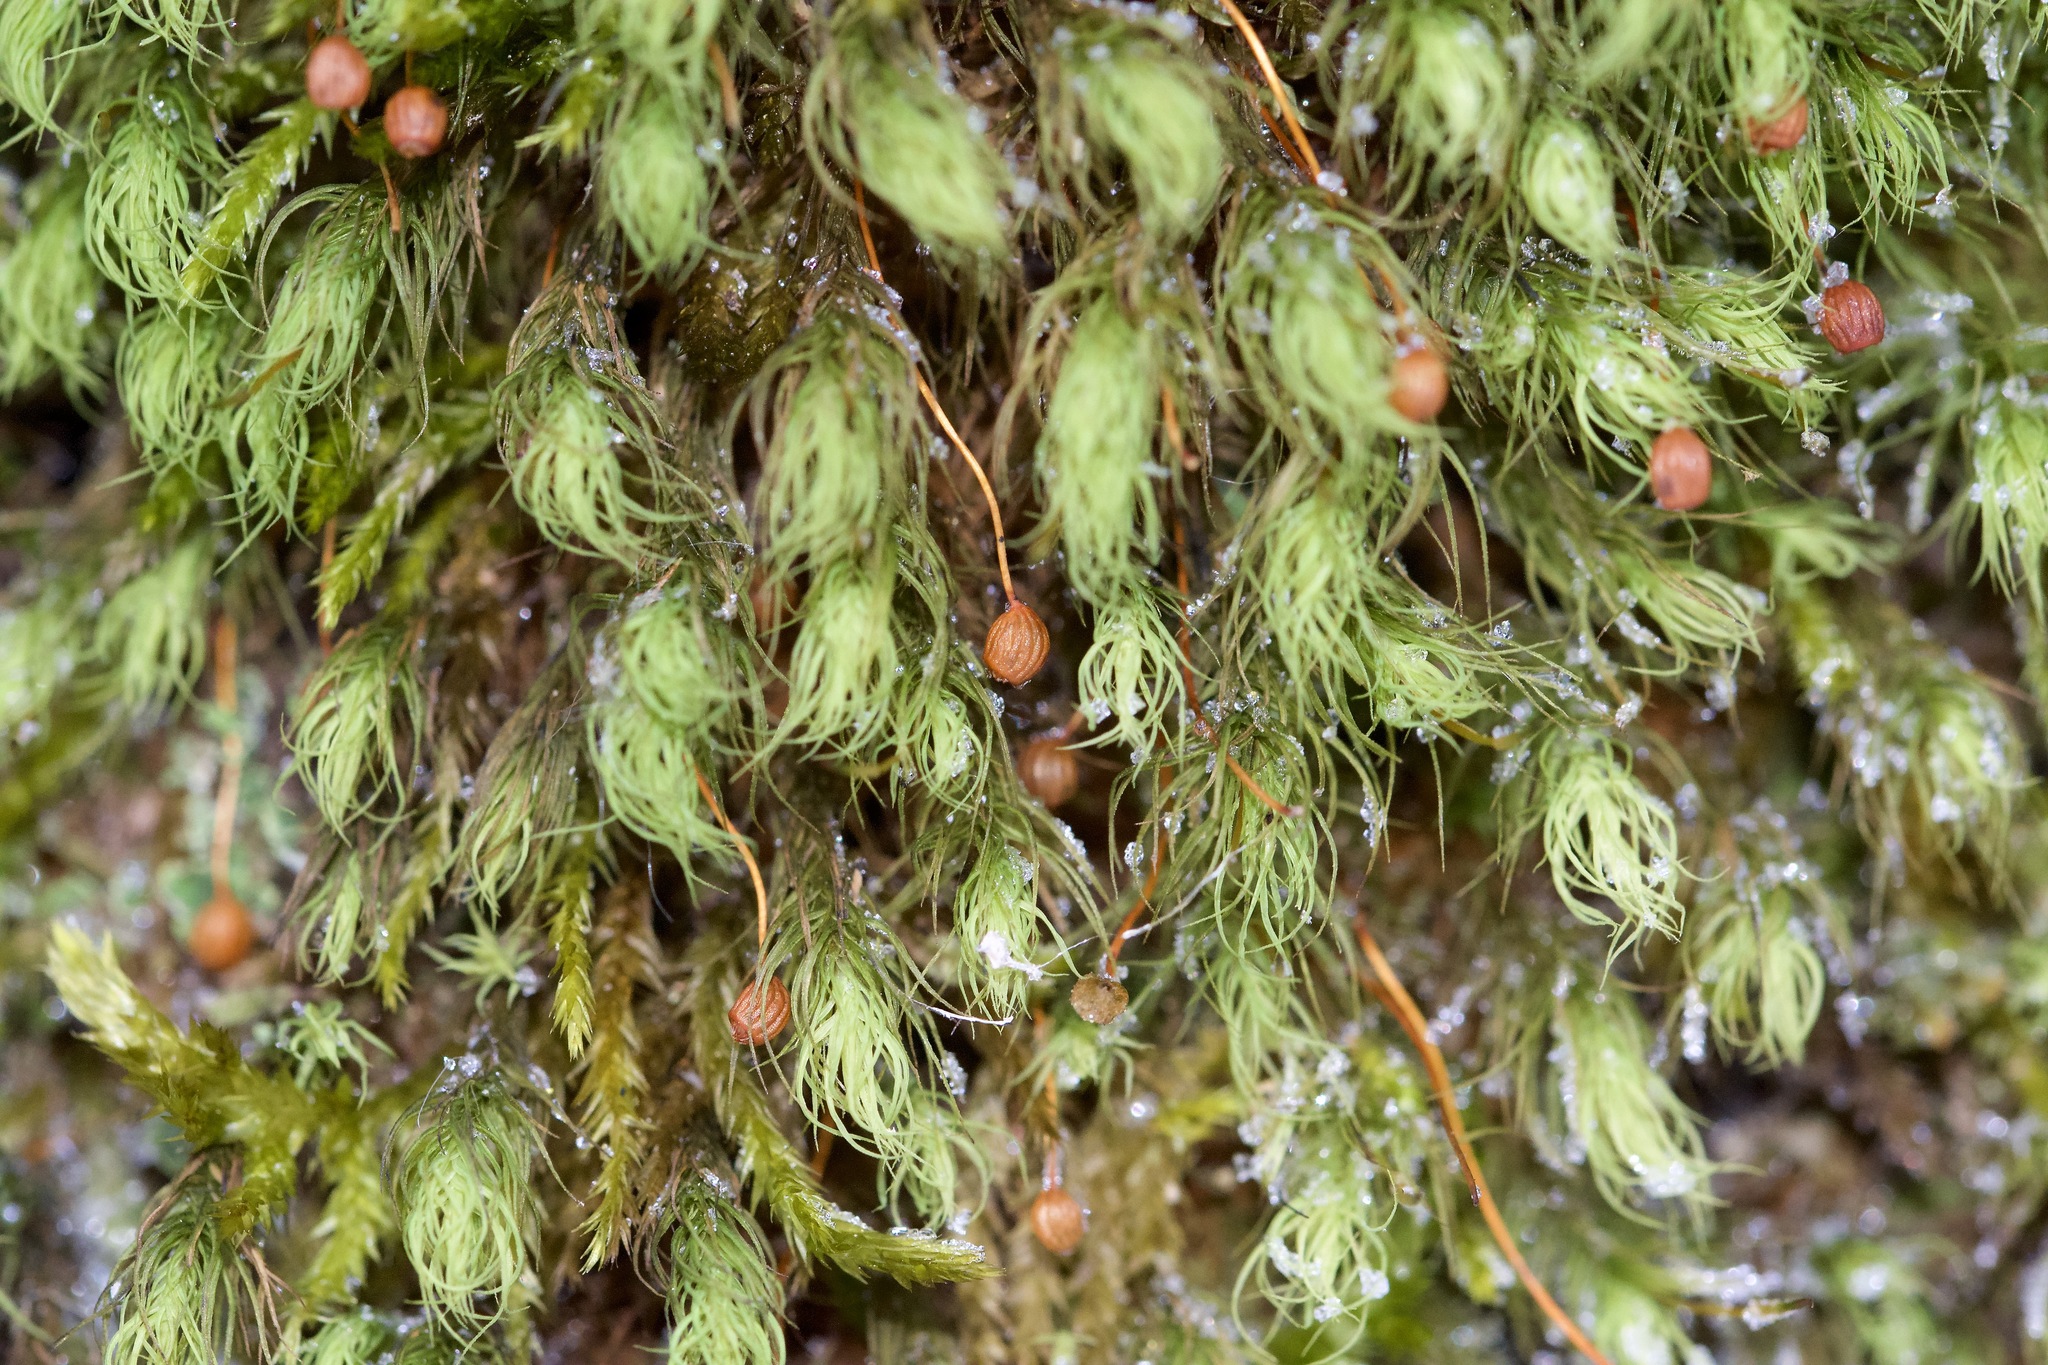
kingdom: Plantae
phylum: Bryophyta
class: Bryopsida
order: Bartramiales
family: Bartramiaceae
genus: Bartramia
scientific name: Bartramia ithyphylla
